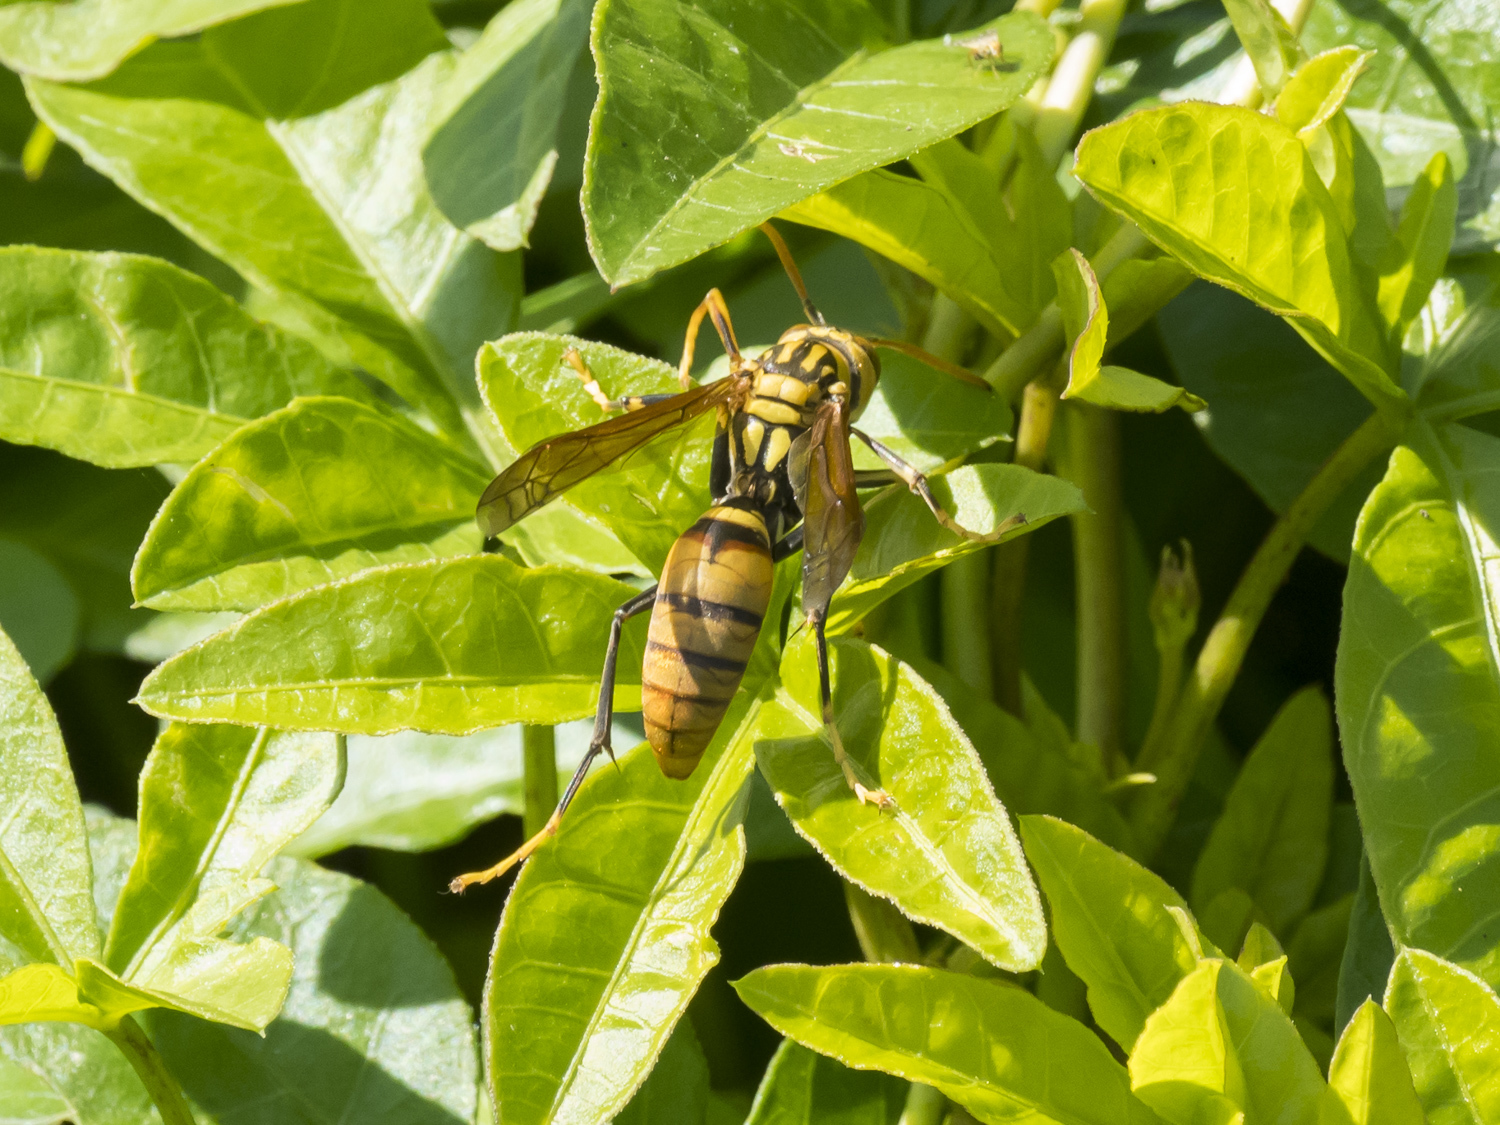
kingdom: Animalia
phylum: Arthropoda
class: Insecta
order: Hymenoptera
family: Eumenidae
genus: Polistes
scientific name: Polistes rothneyi
